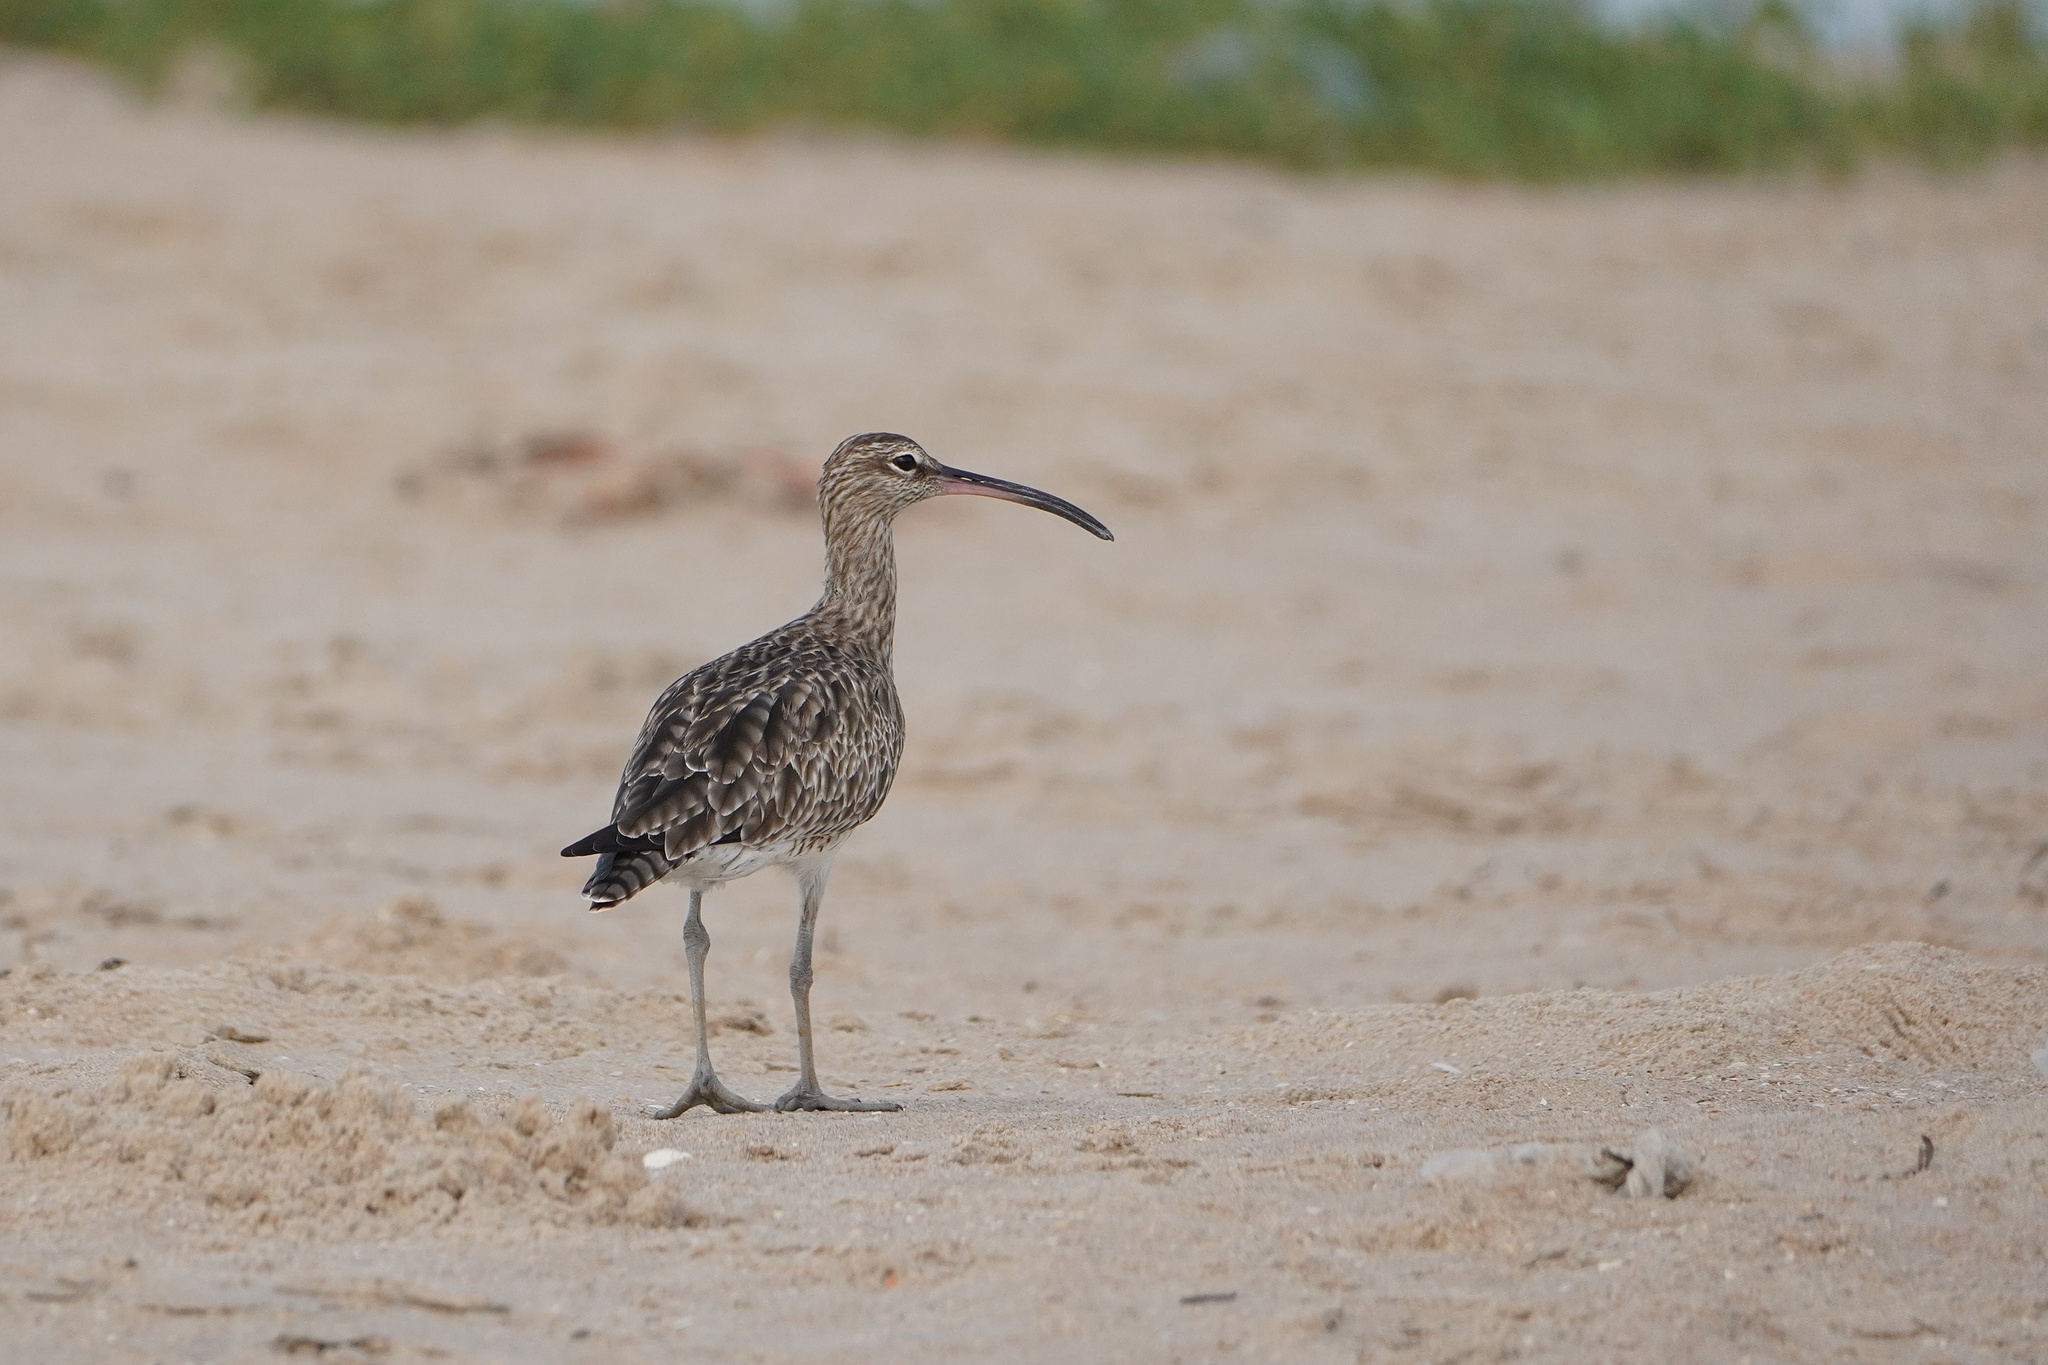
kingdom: Animalia
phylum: Chordata
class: Aves
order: Charadriiformes
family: Scolopacidae
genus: Numenius
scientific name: Numenius phaeopus
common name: Whimbrel
